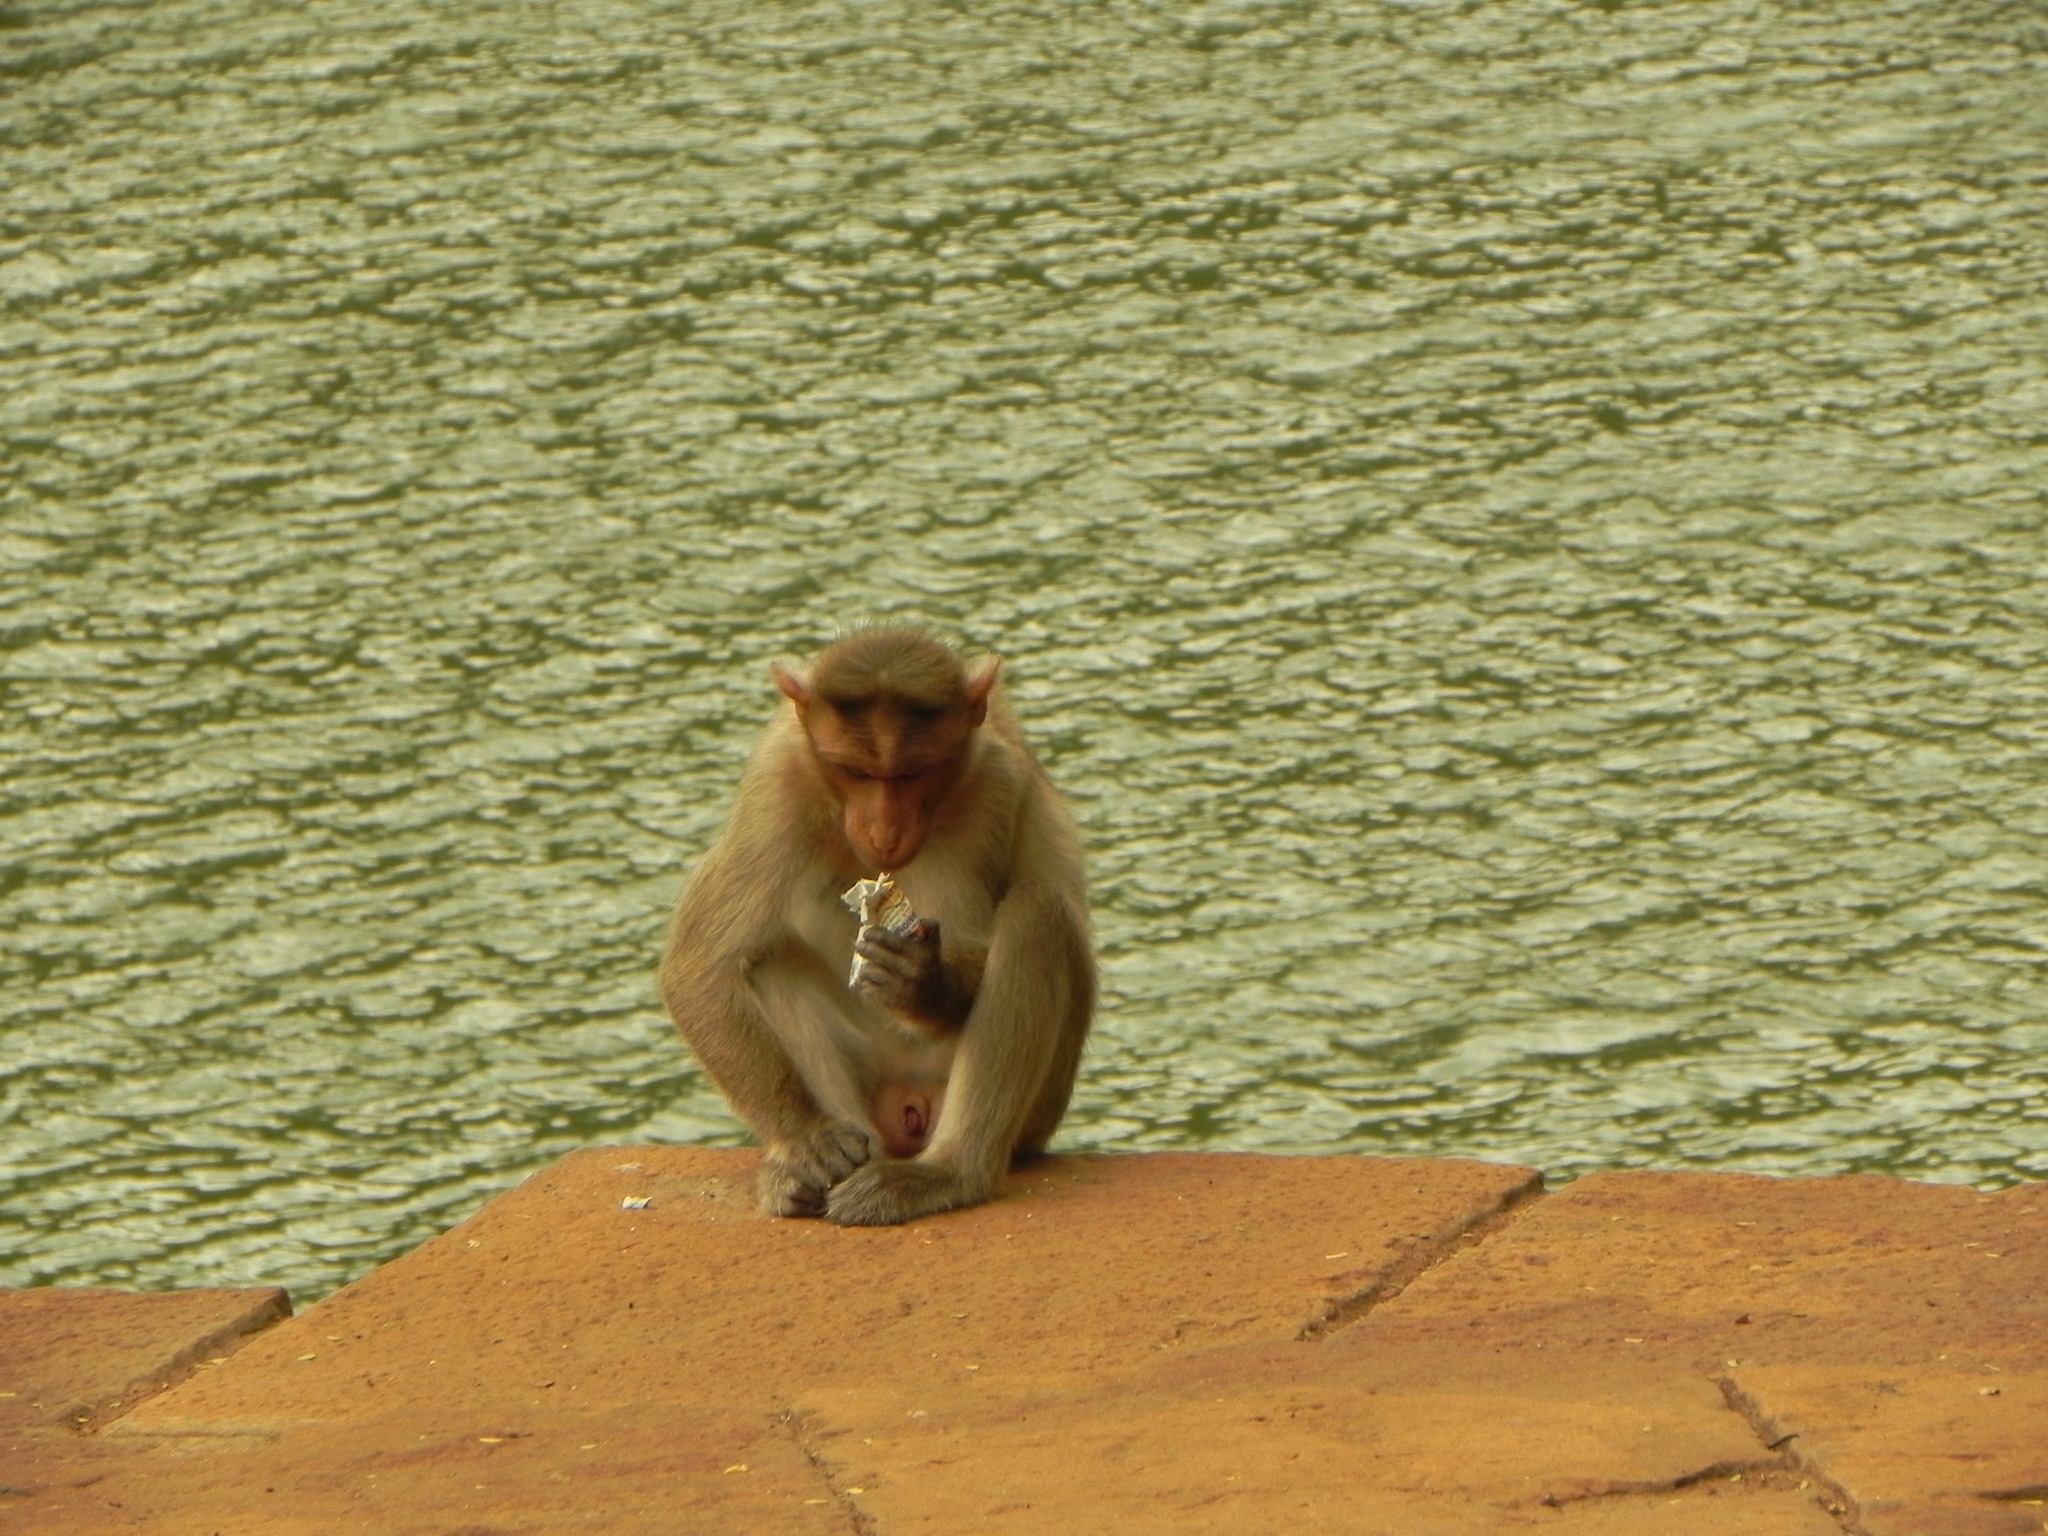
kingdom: Animalia
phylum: Chordata
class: Mammalia
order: Primates
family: Cercopithecidae
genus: Macaca
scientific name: Macaca radiata
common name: Bonnet macaque
